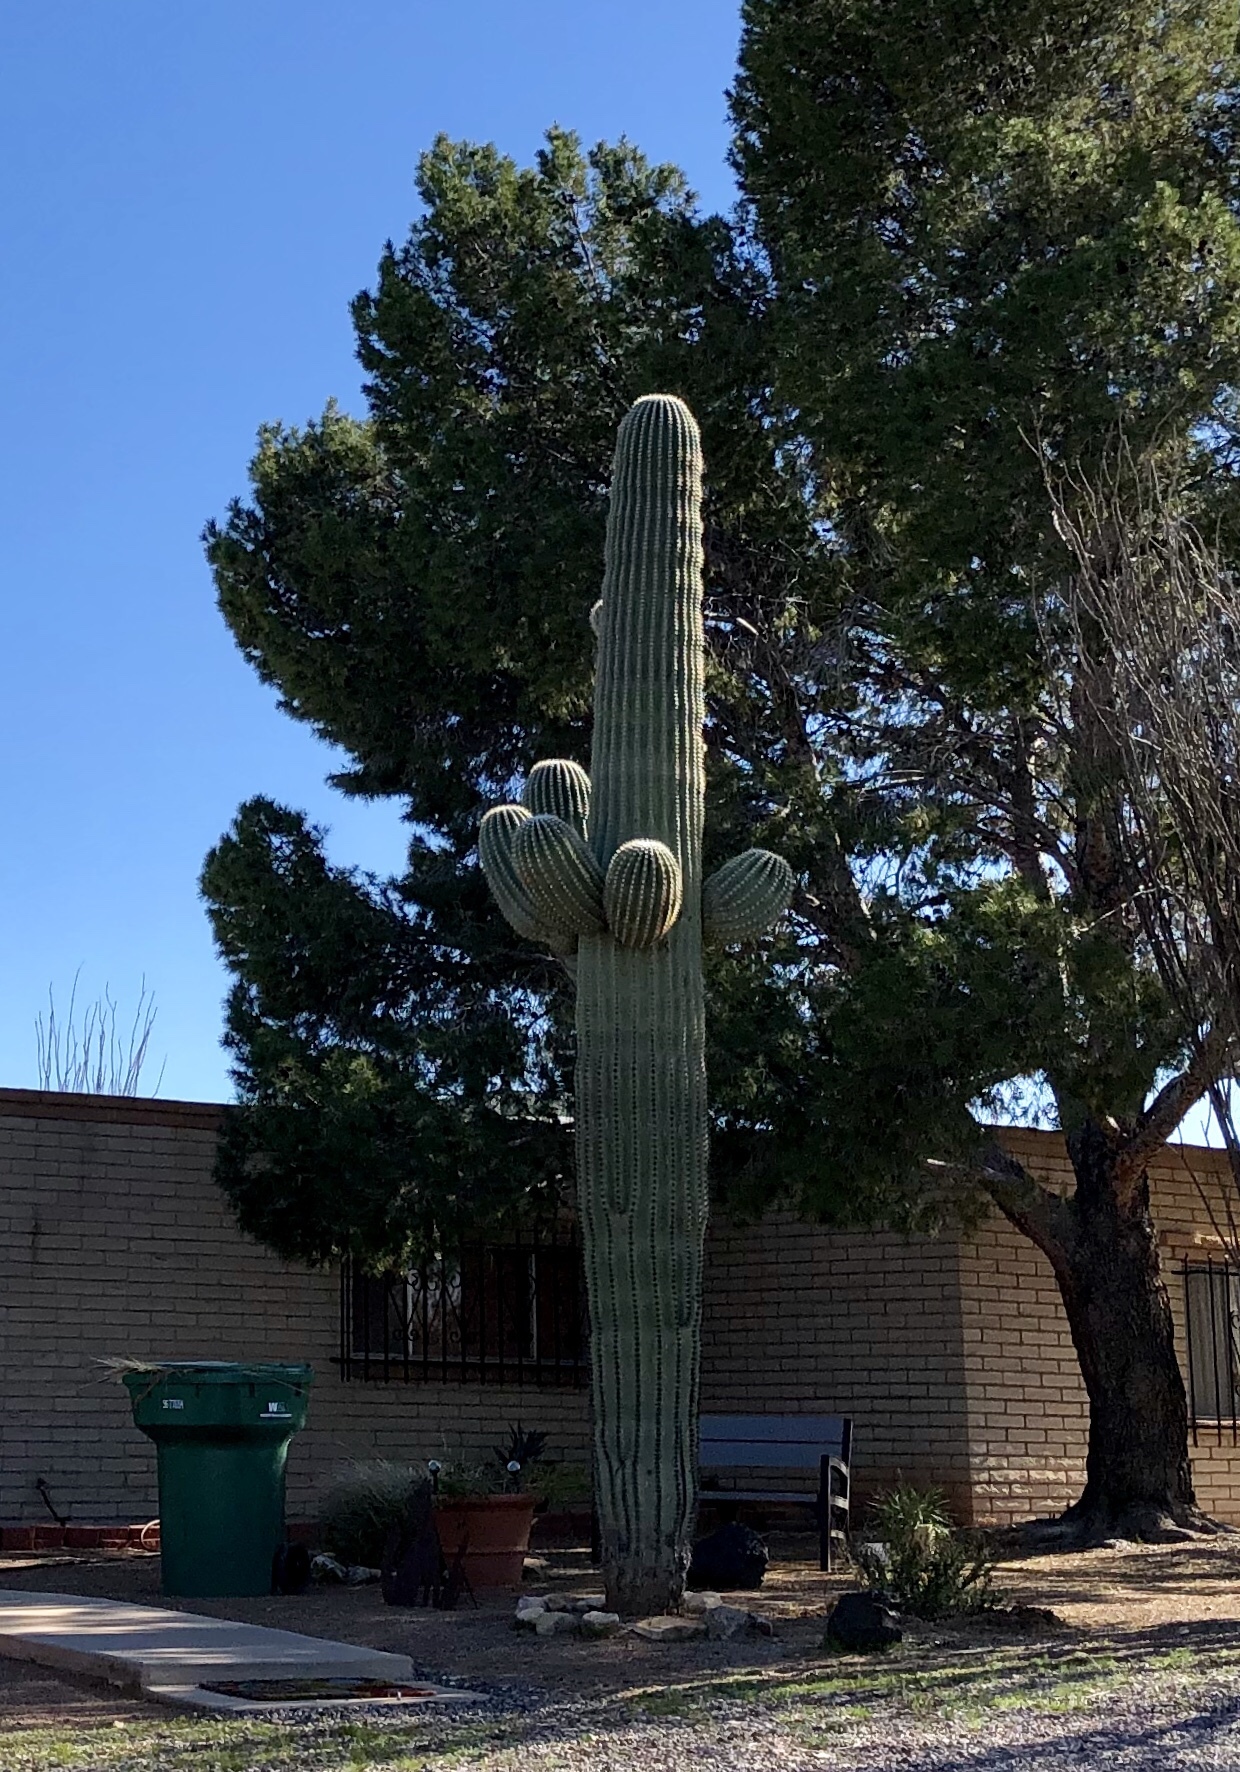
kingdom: Plantae
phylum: Tracheophyta
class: Magnoliopsida
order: Caryophyllales
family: Cactaceae
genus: Carnegiea
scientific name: Carnegiea gigantea
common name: Saguaro
